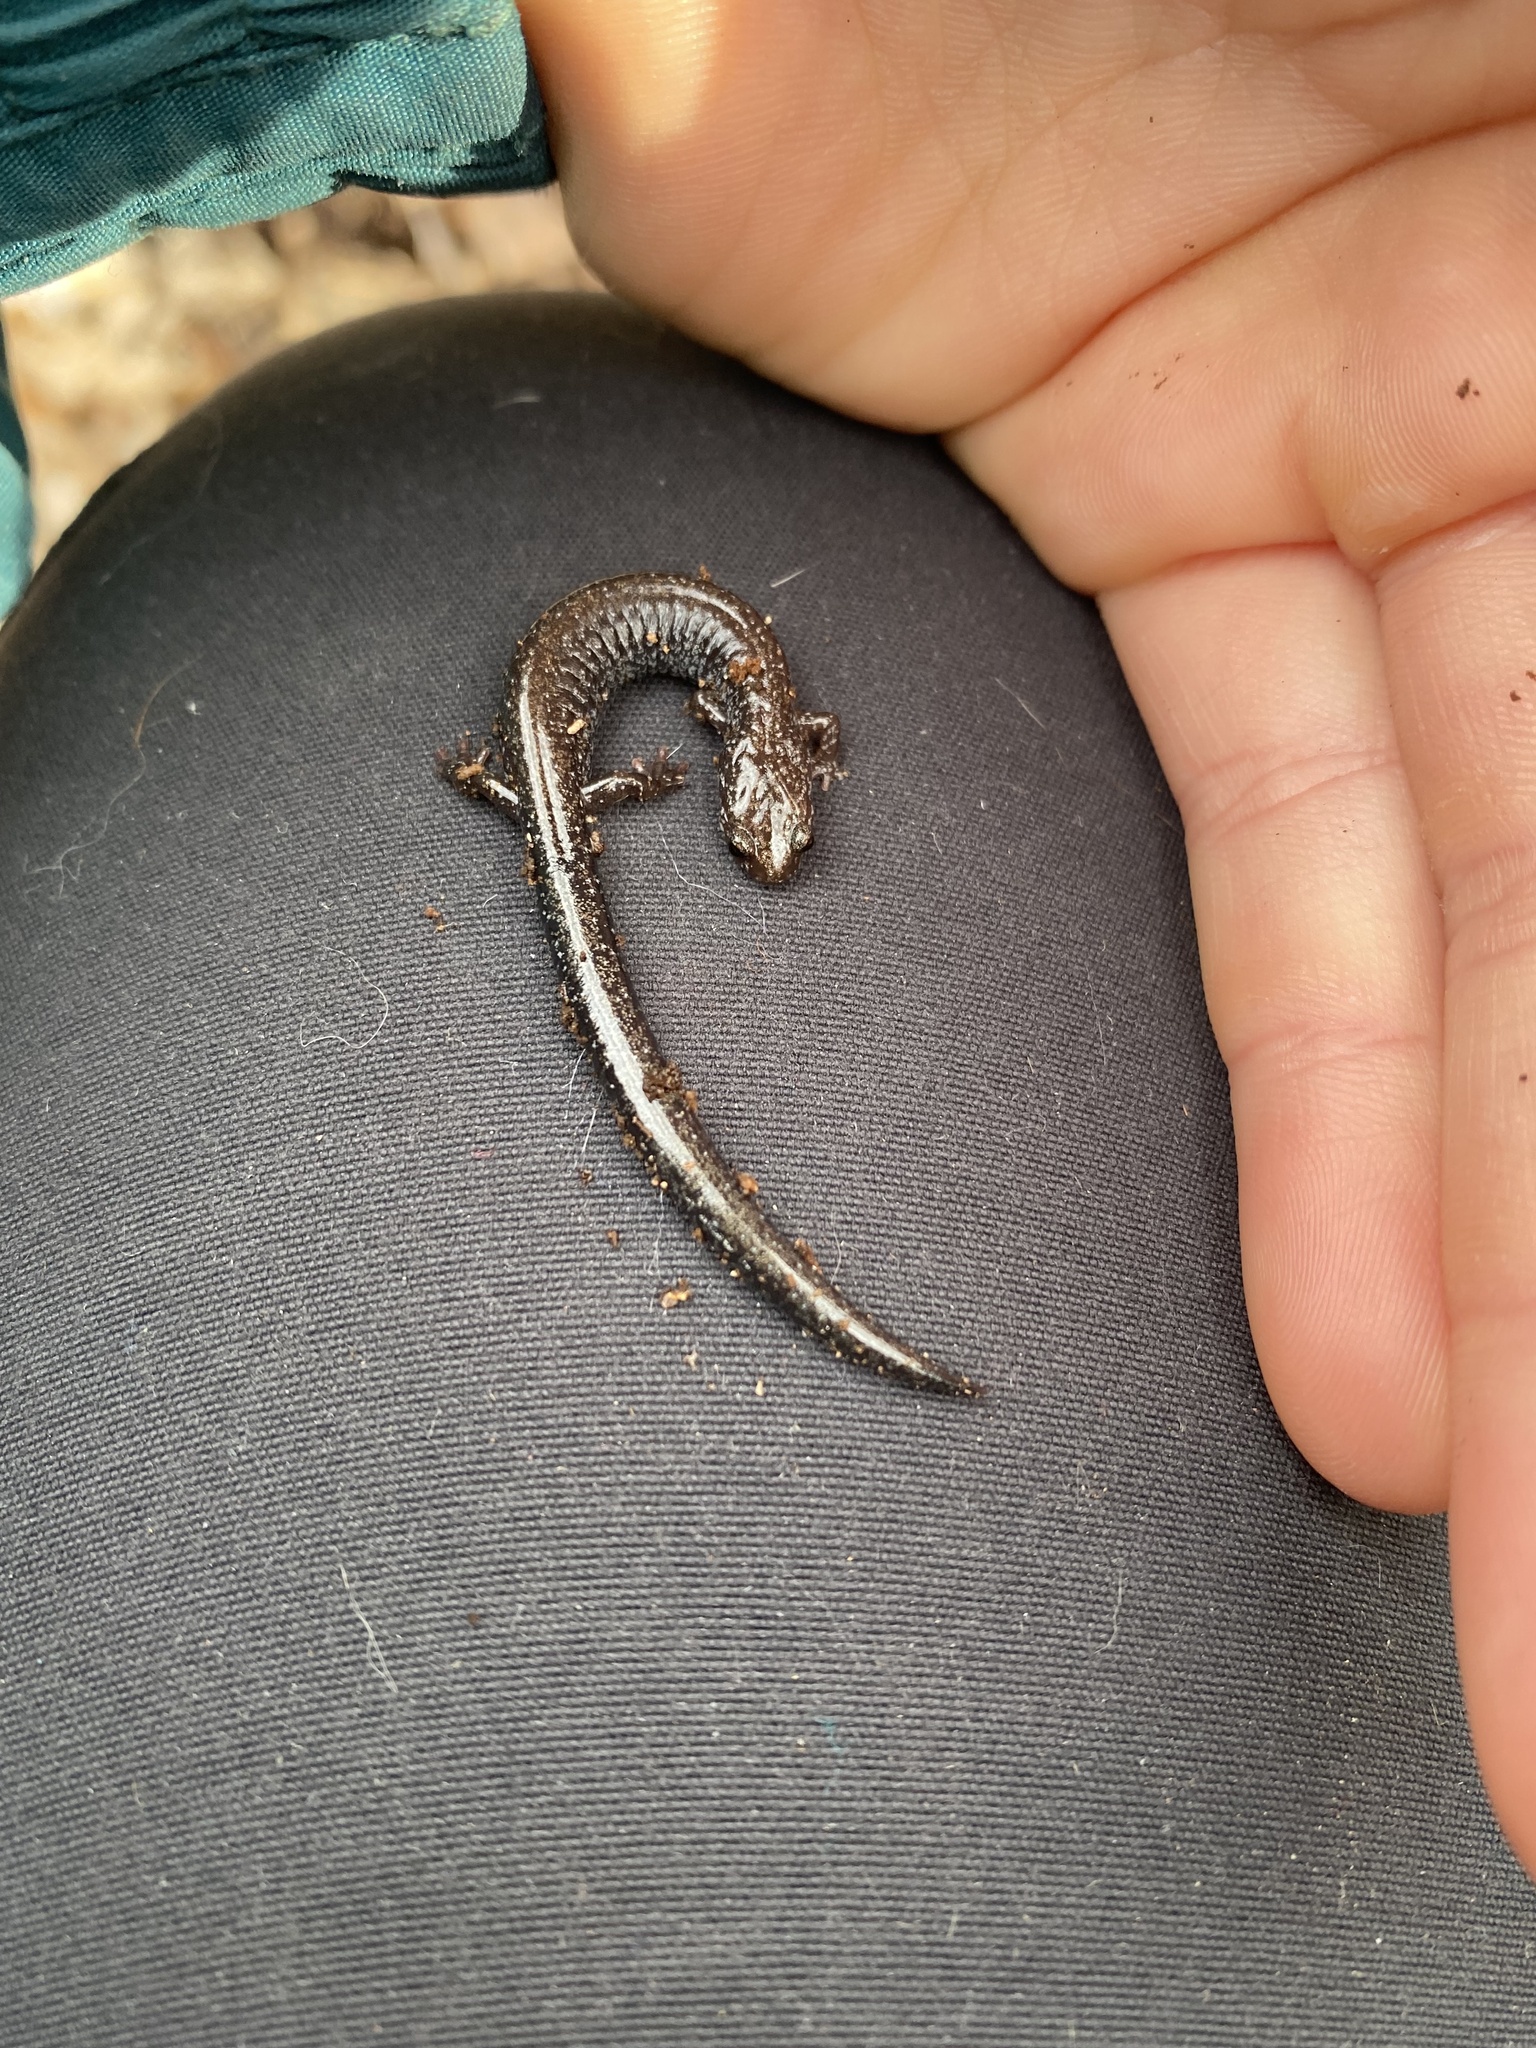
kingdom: Animalia
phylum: Chordata
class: Amphibia
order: Caudata
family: Plethodontidae
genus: Plethodon
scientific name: Plethodon electromorphus
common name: Northern ravine salamander
